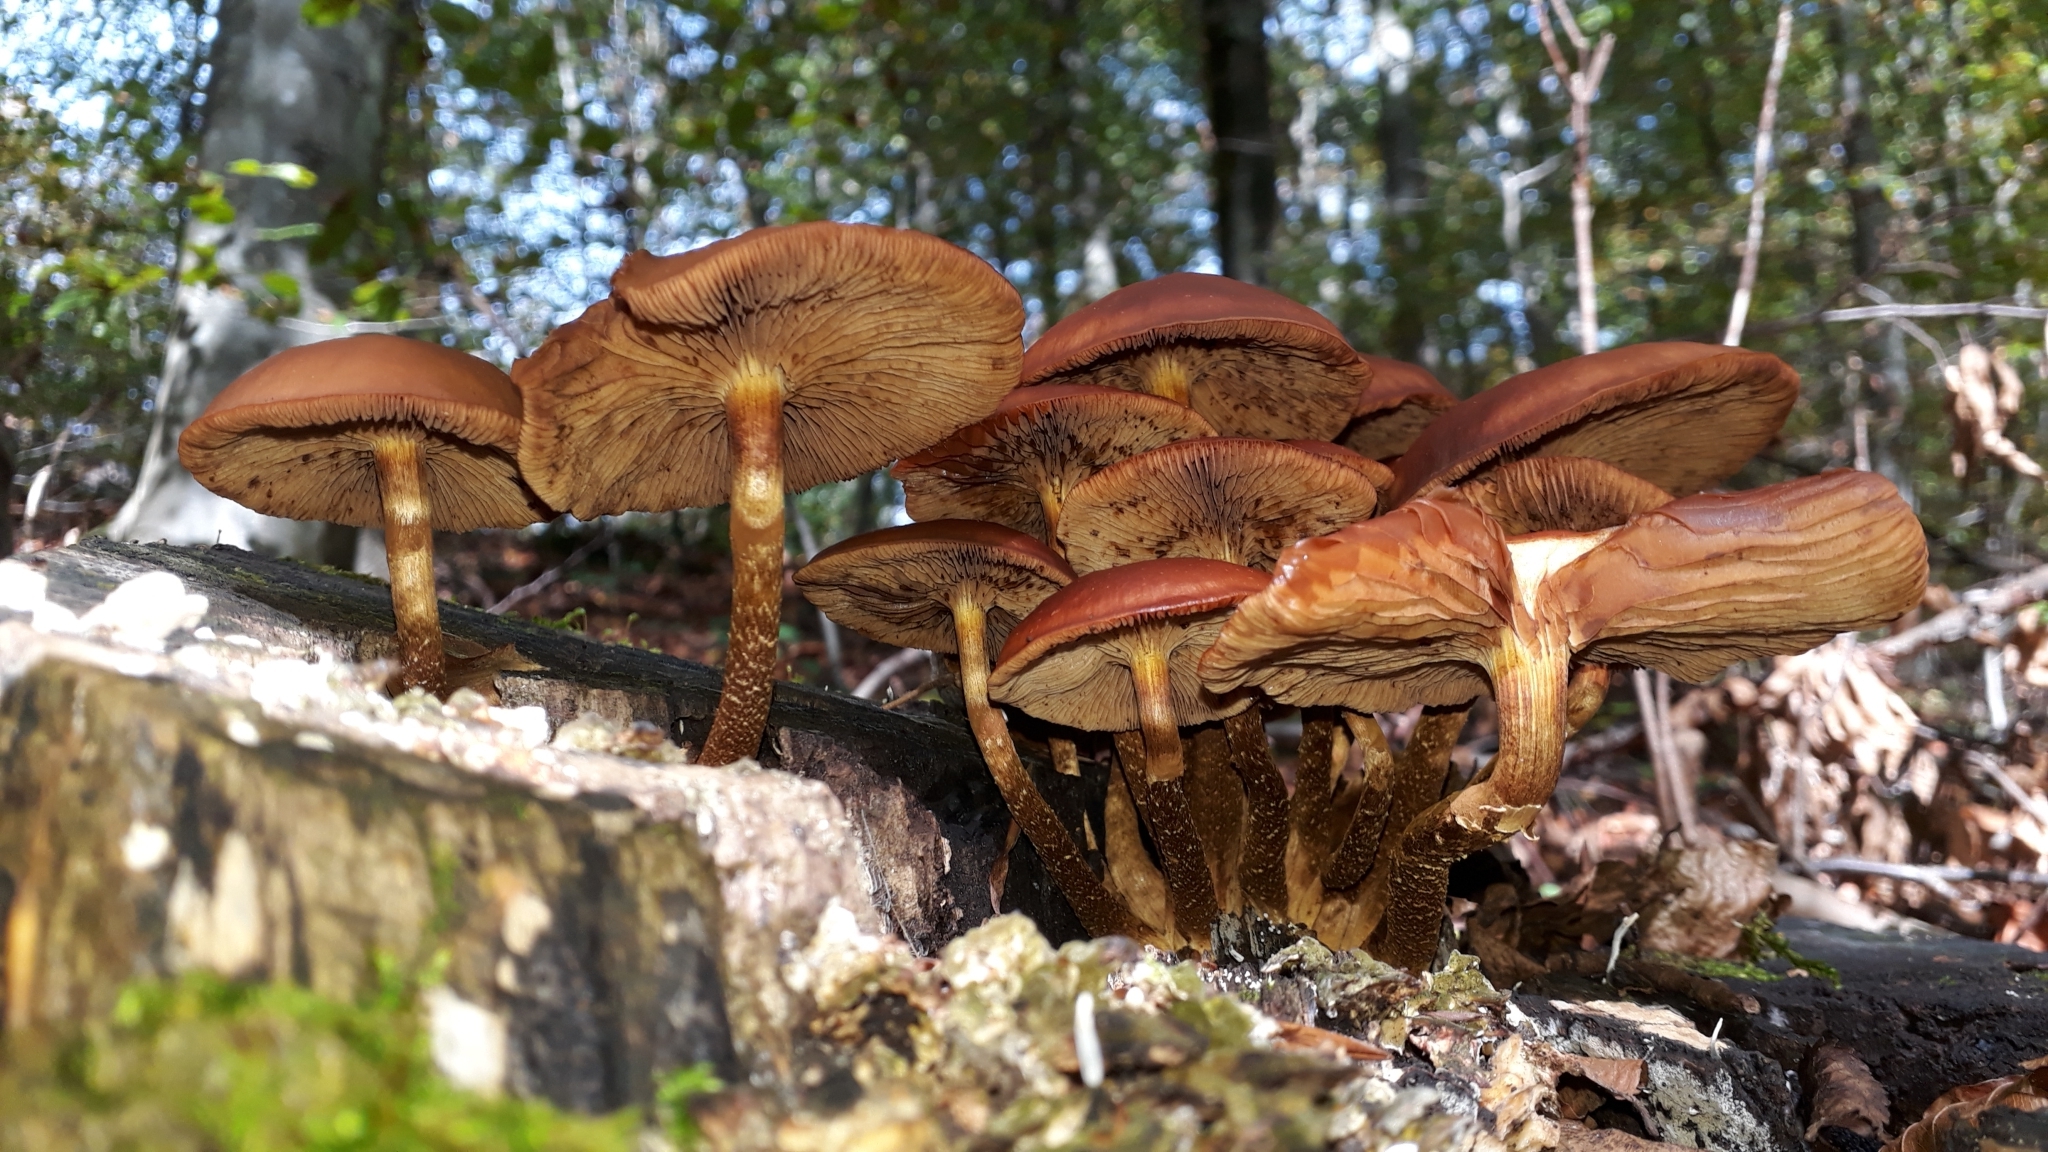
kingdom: Fungi
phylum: Basidiomycota
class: Agaricomycetes
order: Agaricales
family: Strophariaceae
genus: Kuehneromyces
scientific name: Kuehneromyces mutabilis
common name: Sheathed woodtuft
